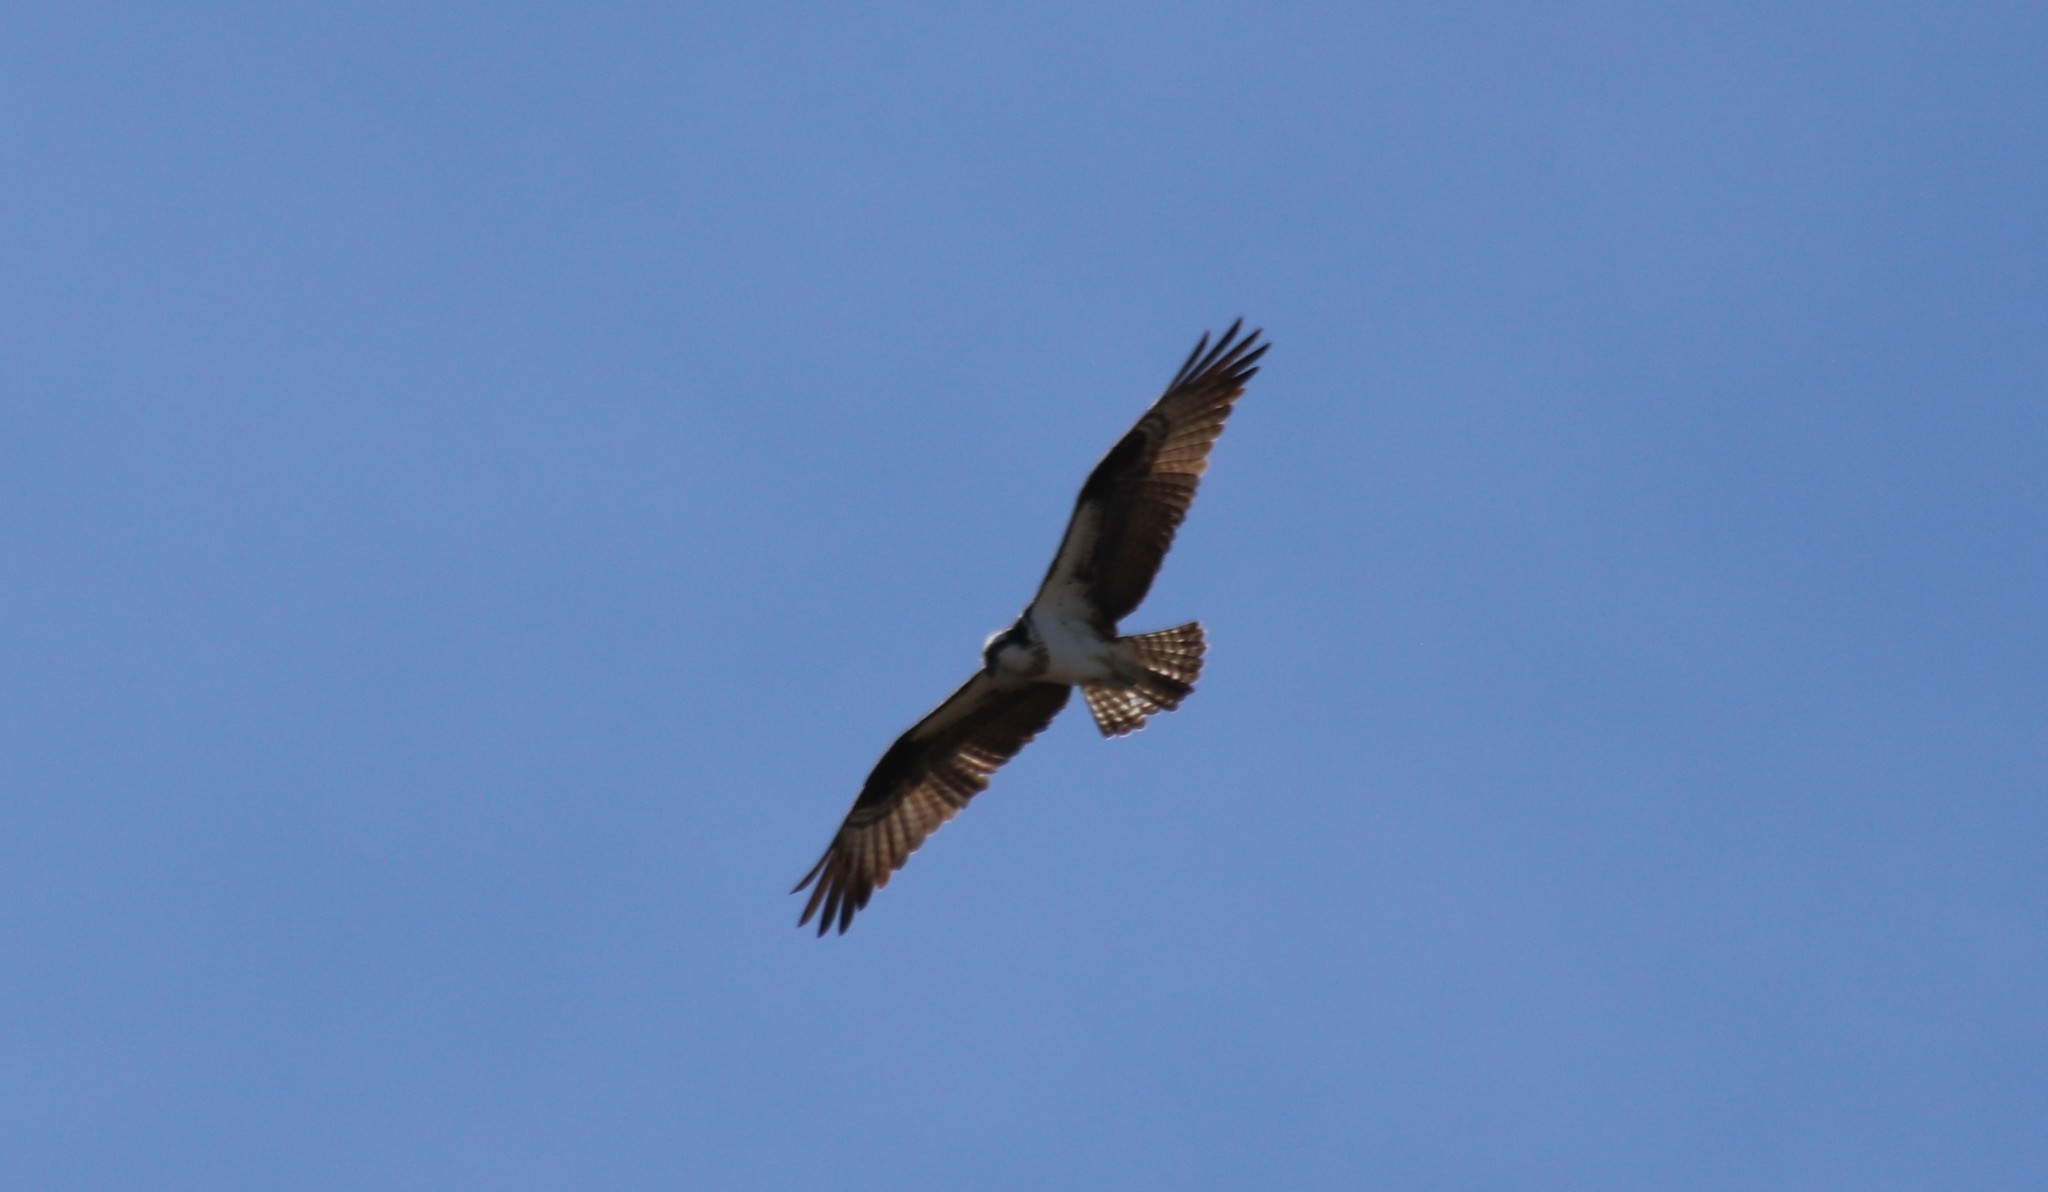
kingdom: Animalia
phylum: Chordata
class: Aves
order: Accipitriformes
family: Pandionidae
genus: Pandion
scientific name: Pandion haliaetus
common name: Osprey
